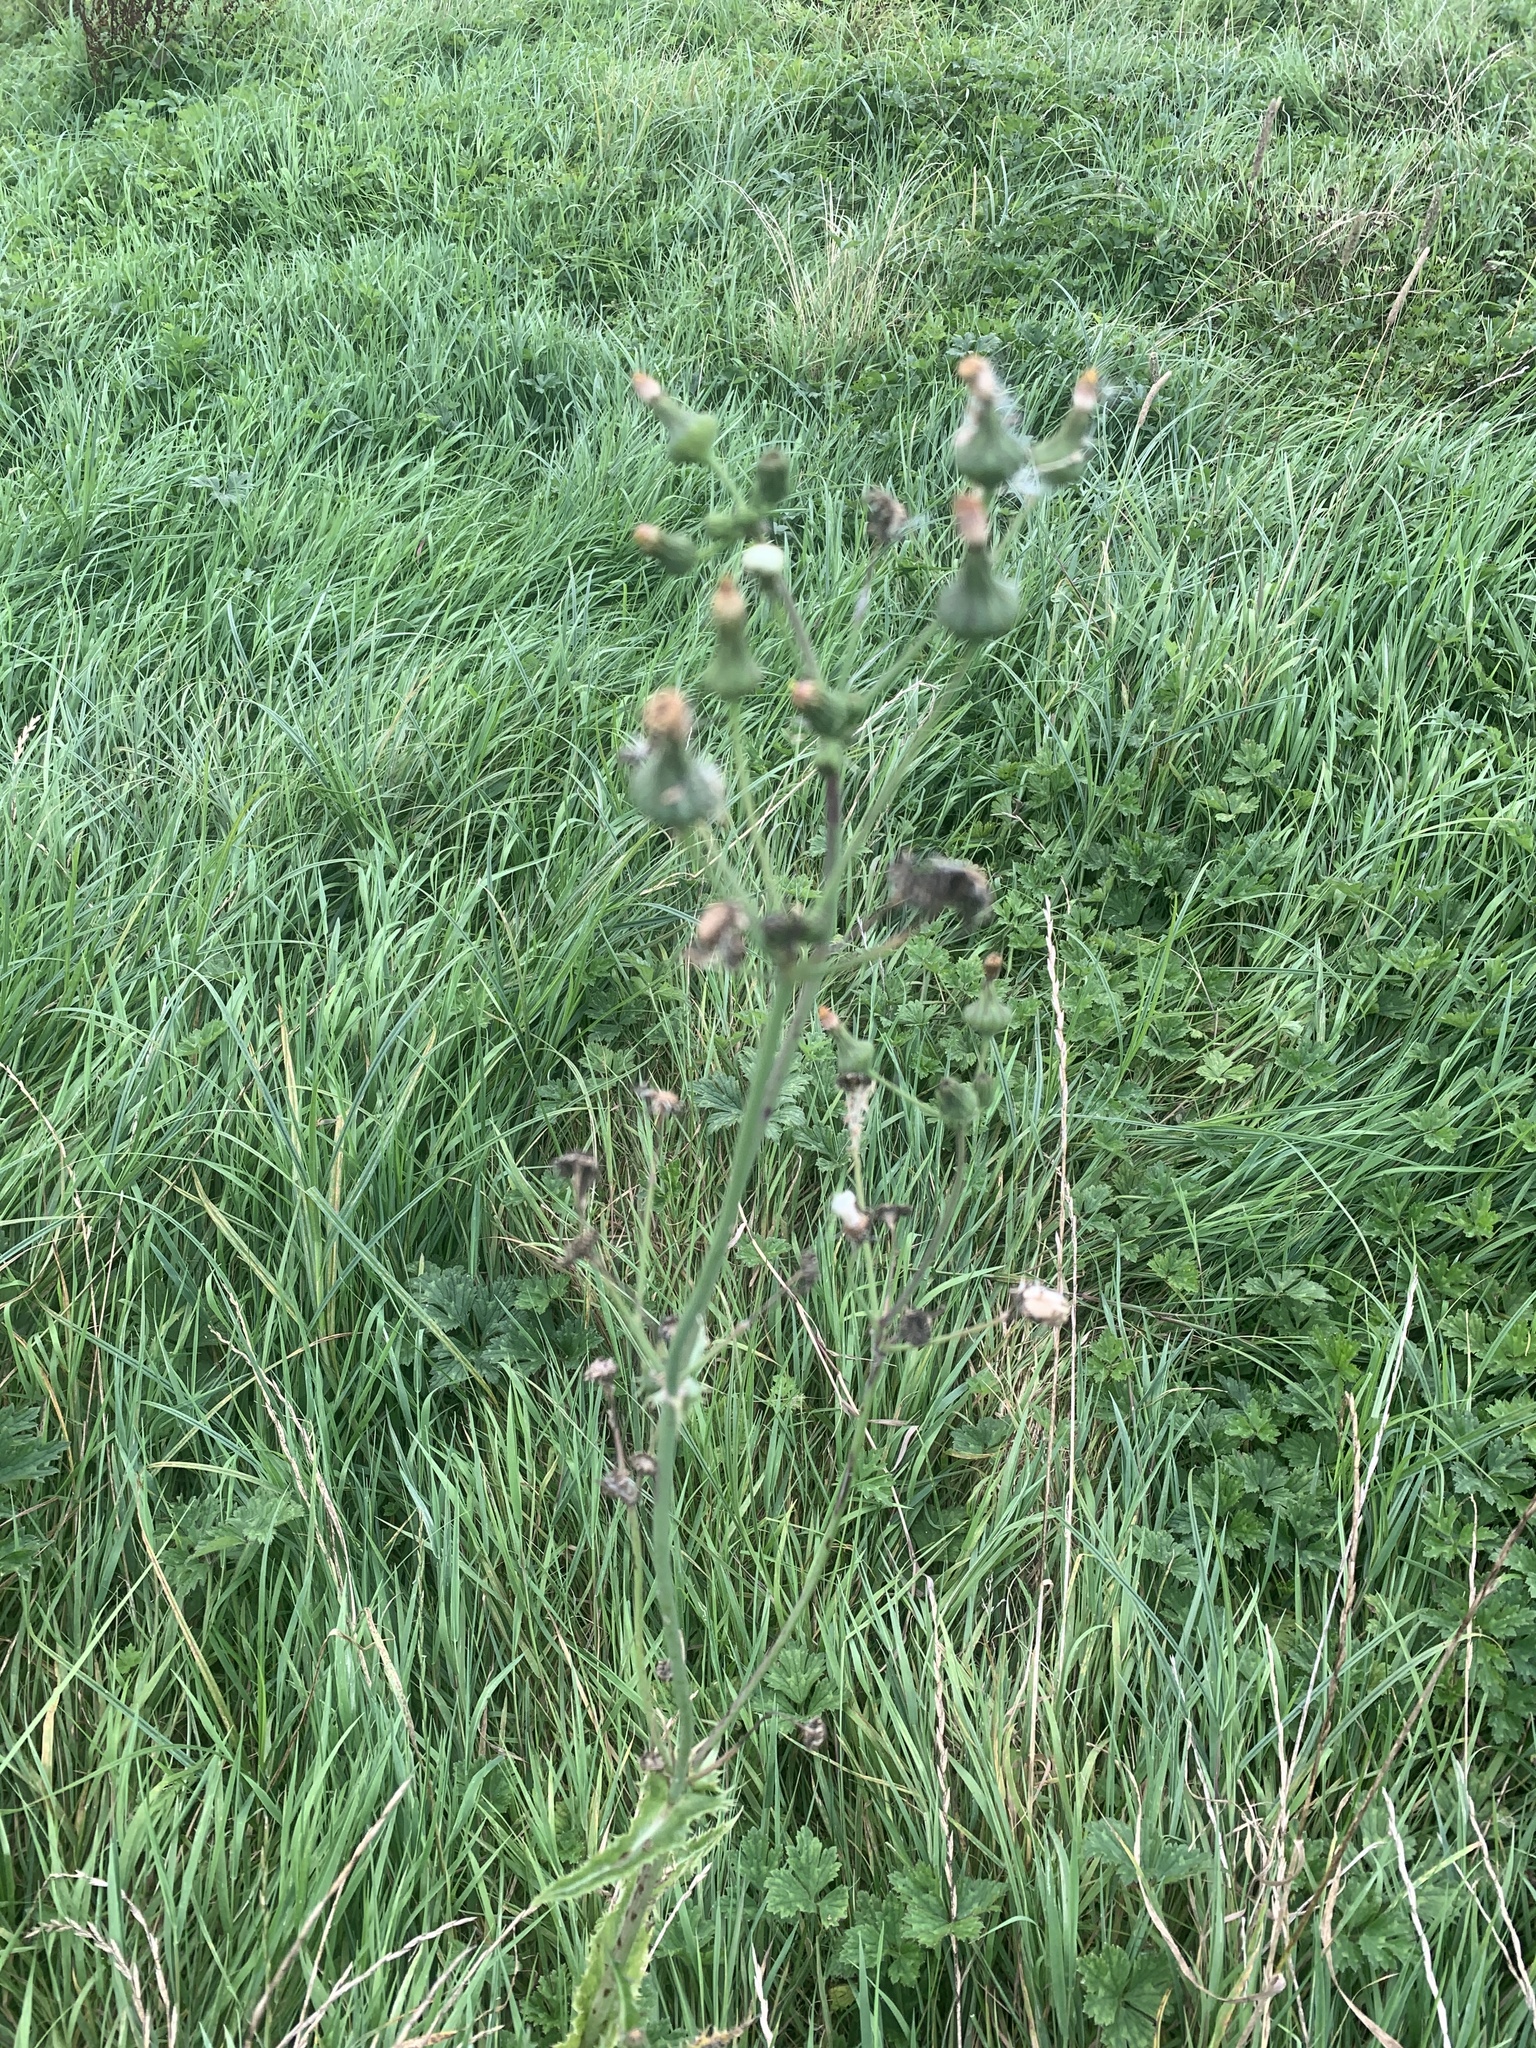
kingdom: Plantae
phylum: Tracheophyta
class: Magnoliopsida
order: Asterales
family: Asteraceae
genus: Sonchus
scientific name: Sonchus asper
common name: Prickly sow-thistle
